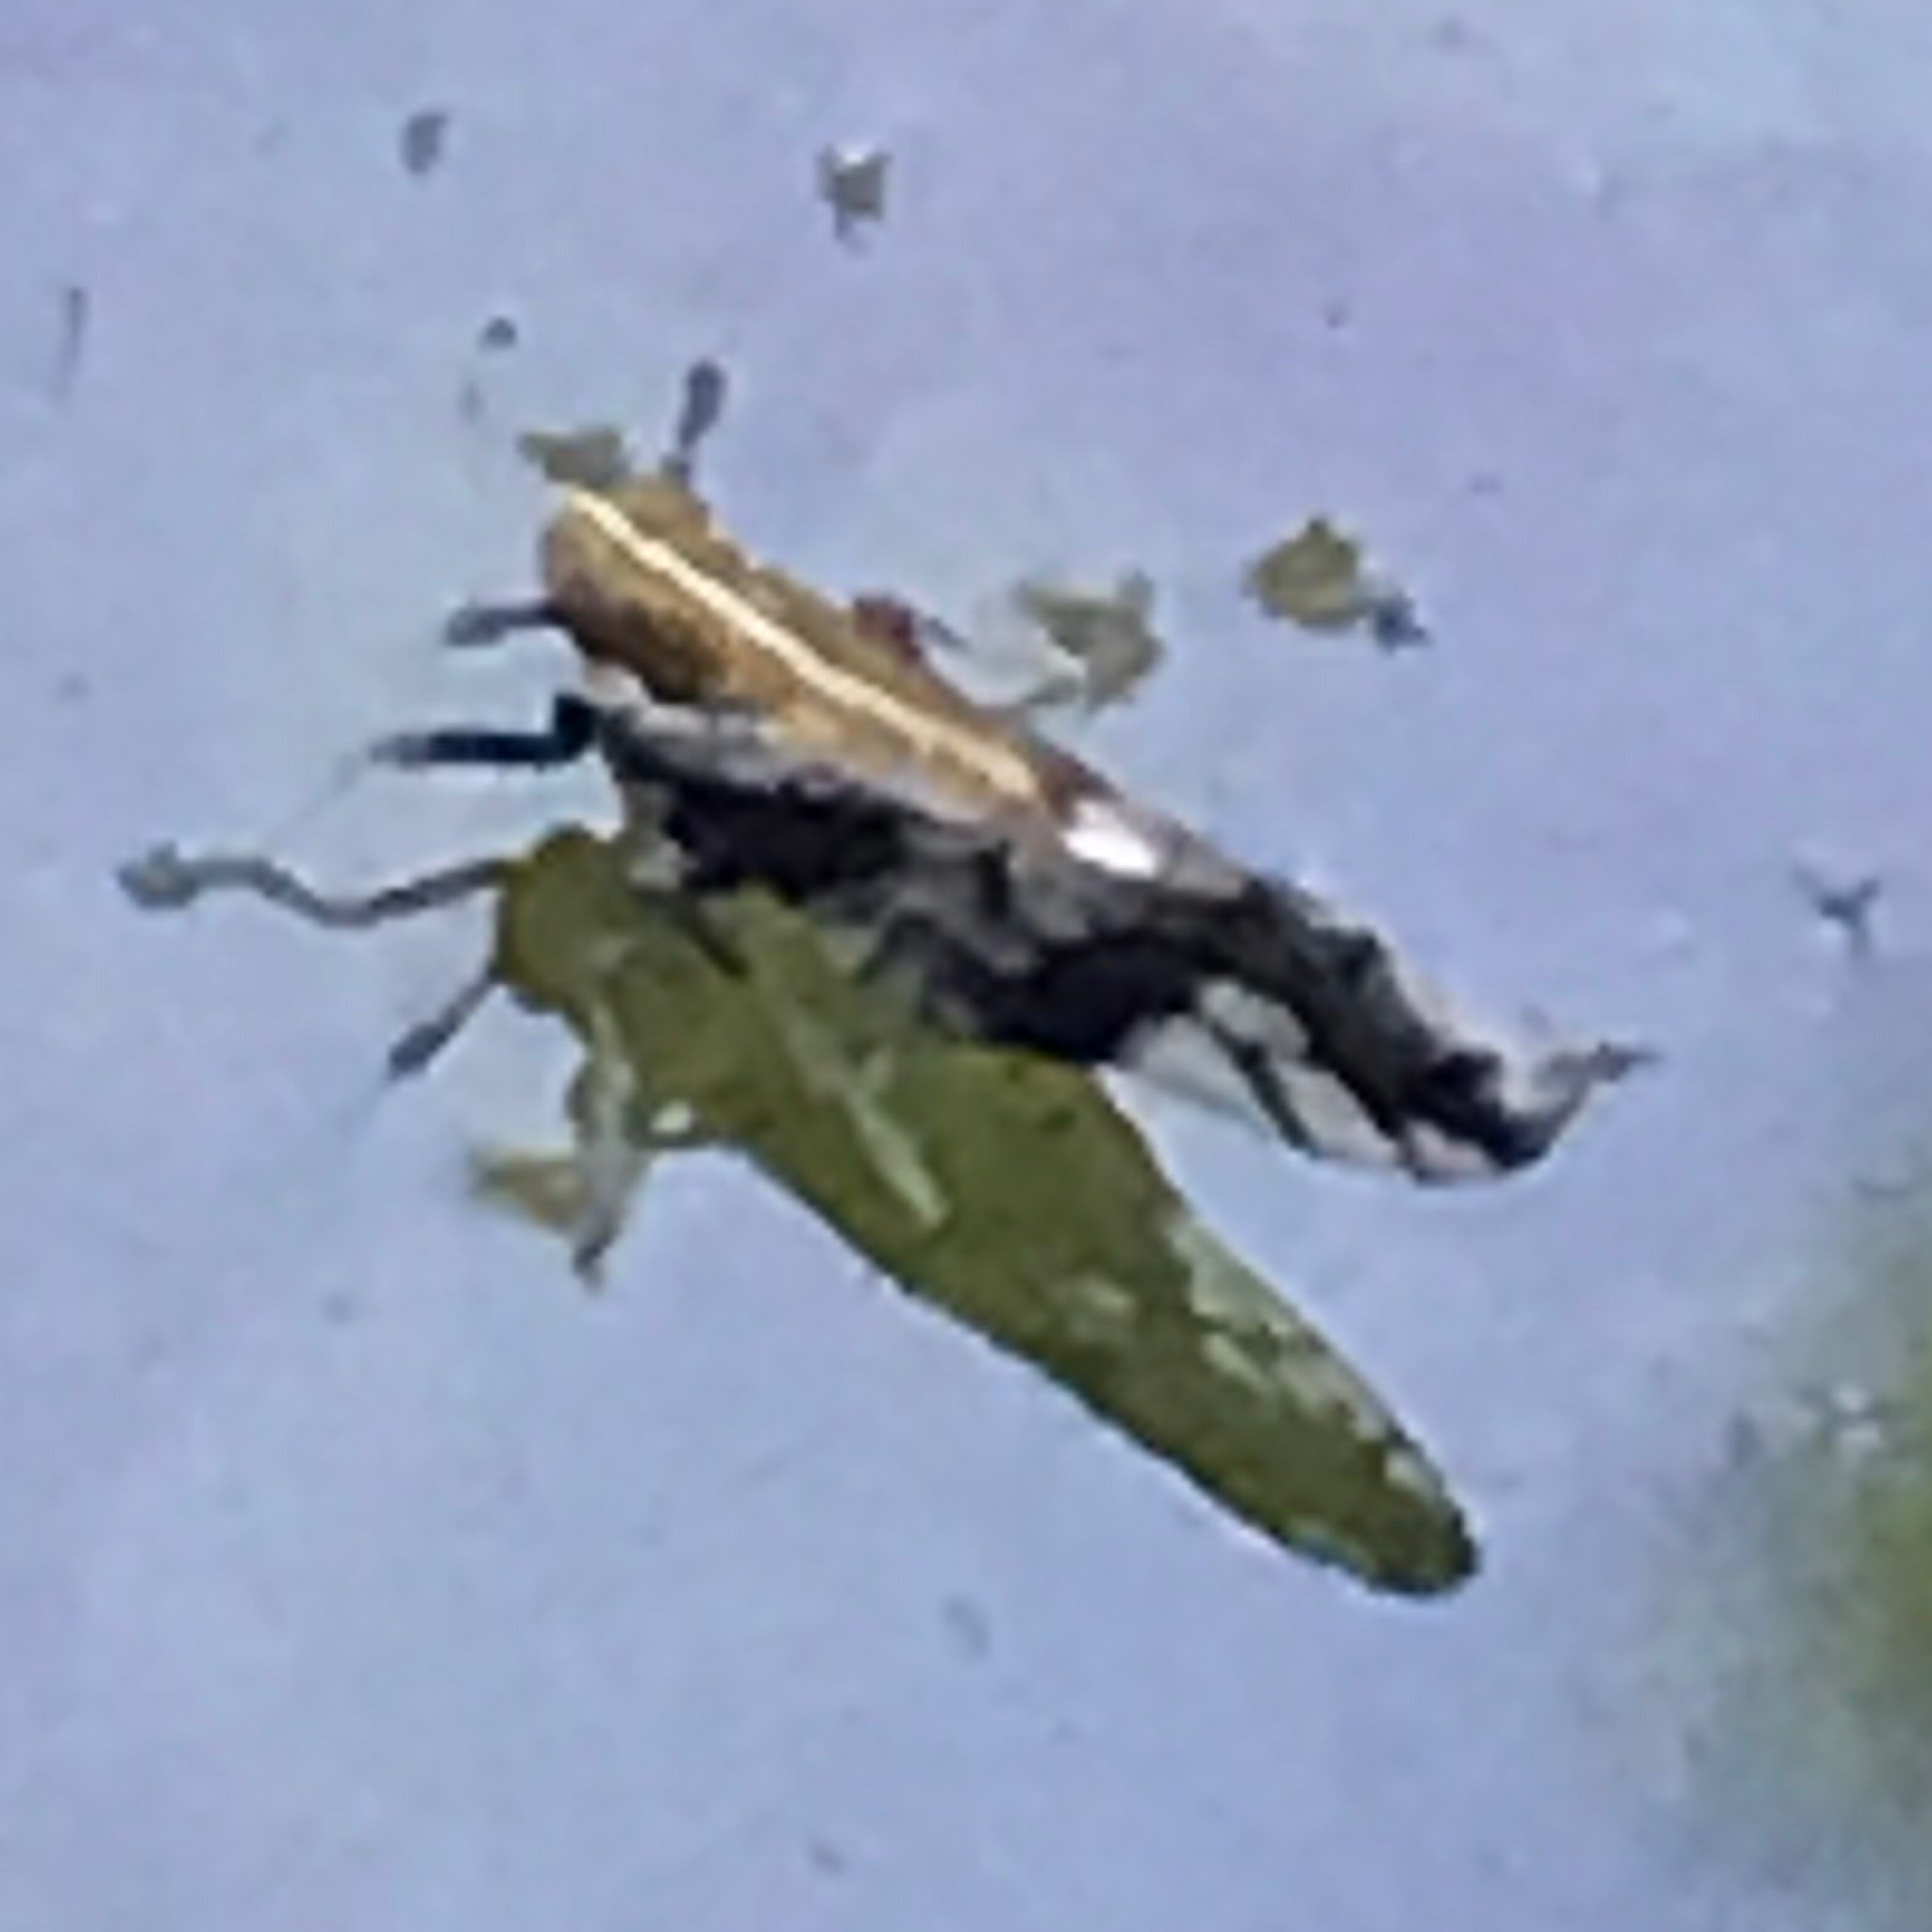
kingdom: Animalia
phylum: Arthropoda
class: Insecta
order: Hemiptera
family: Delphacidae
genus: Liburniella
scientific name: Liburniella ornata
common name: Ornate planthopper
